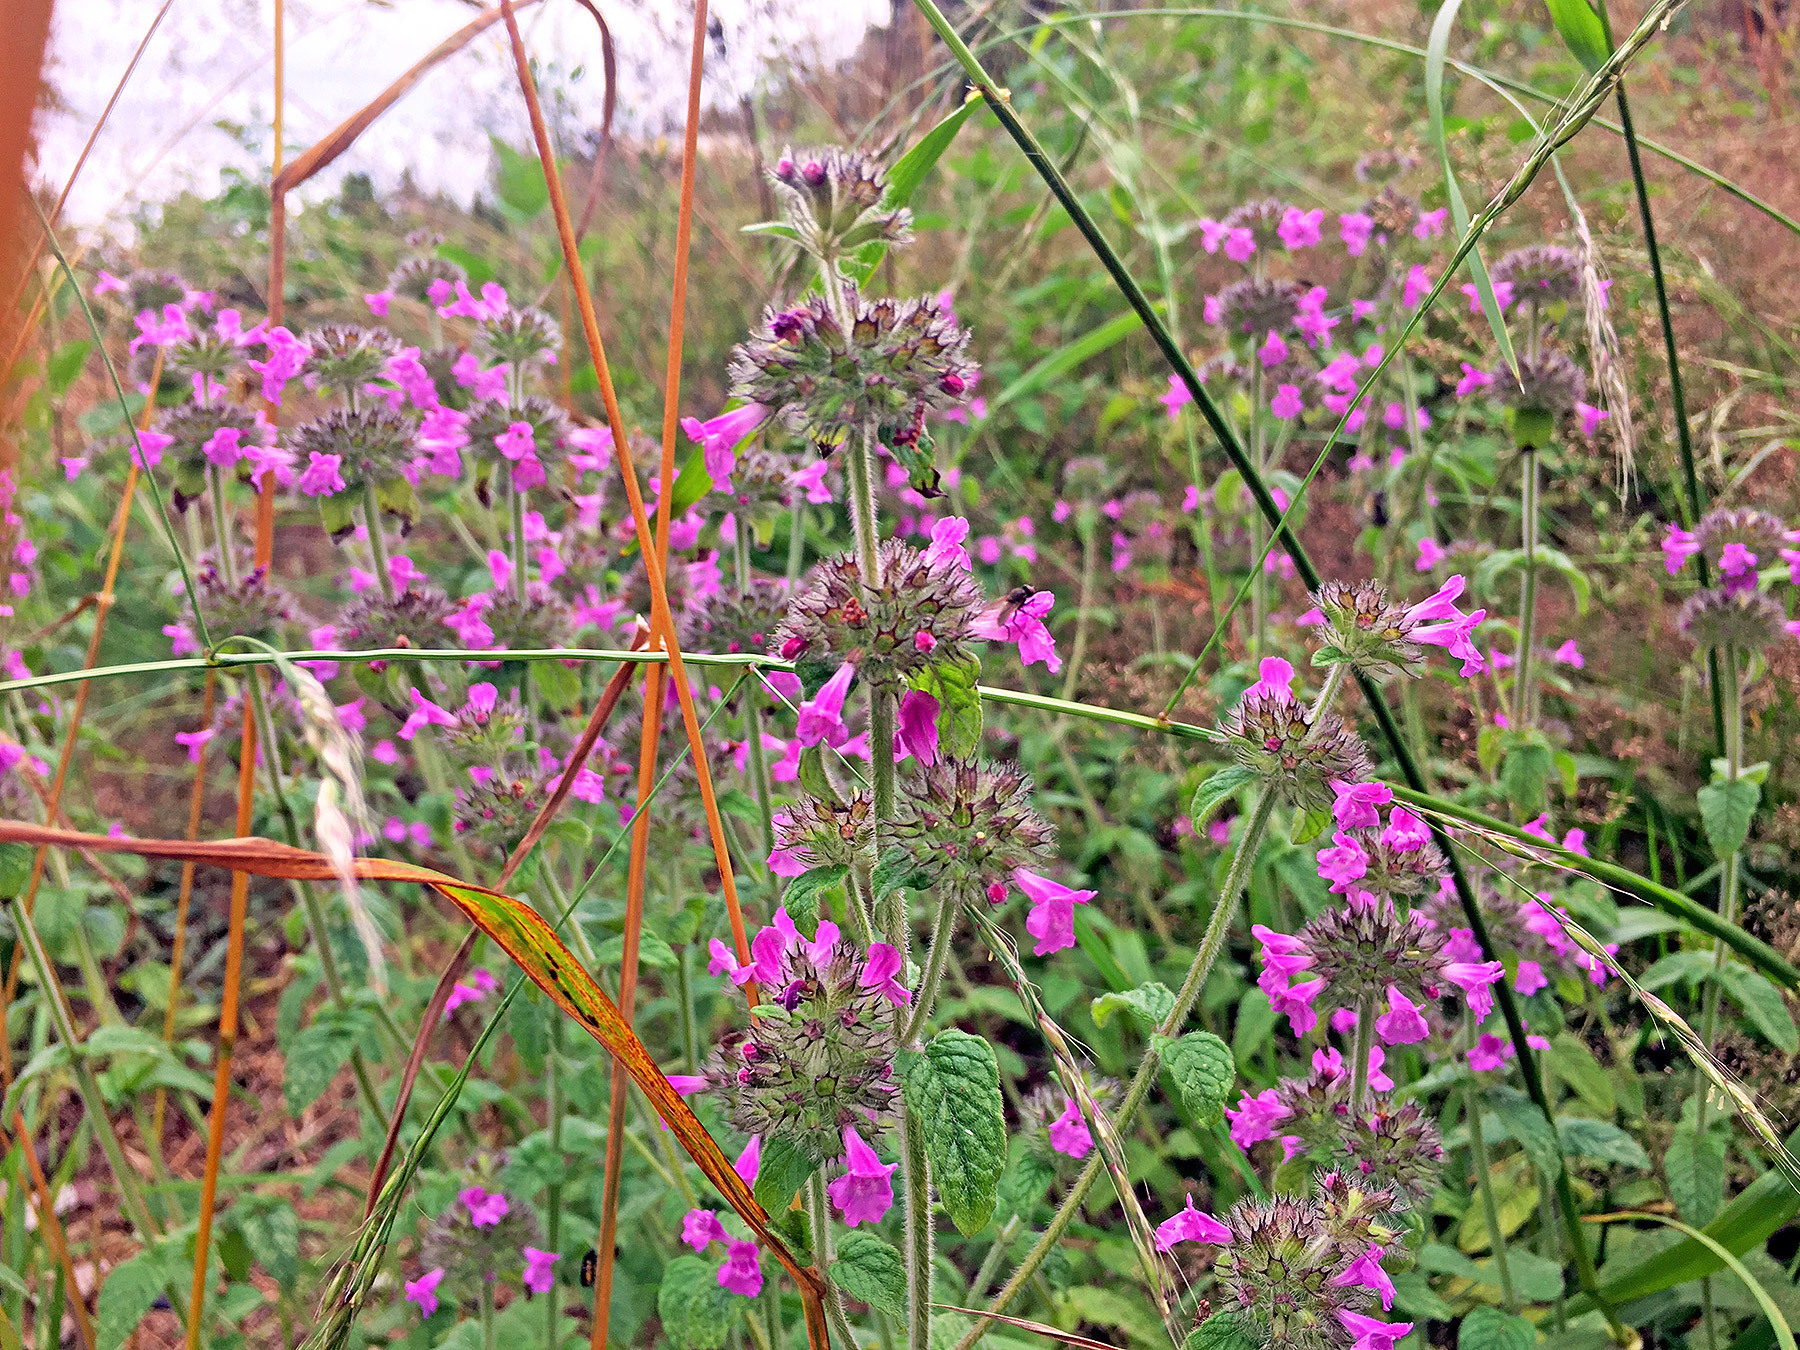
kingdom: Plantae
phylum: Tracheophyta
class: Magnoliopsida
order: Lamiales
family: Lamiaceae
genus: Clinopodium
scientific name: Clinopodium vulgare
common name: Wild basil
